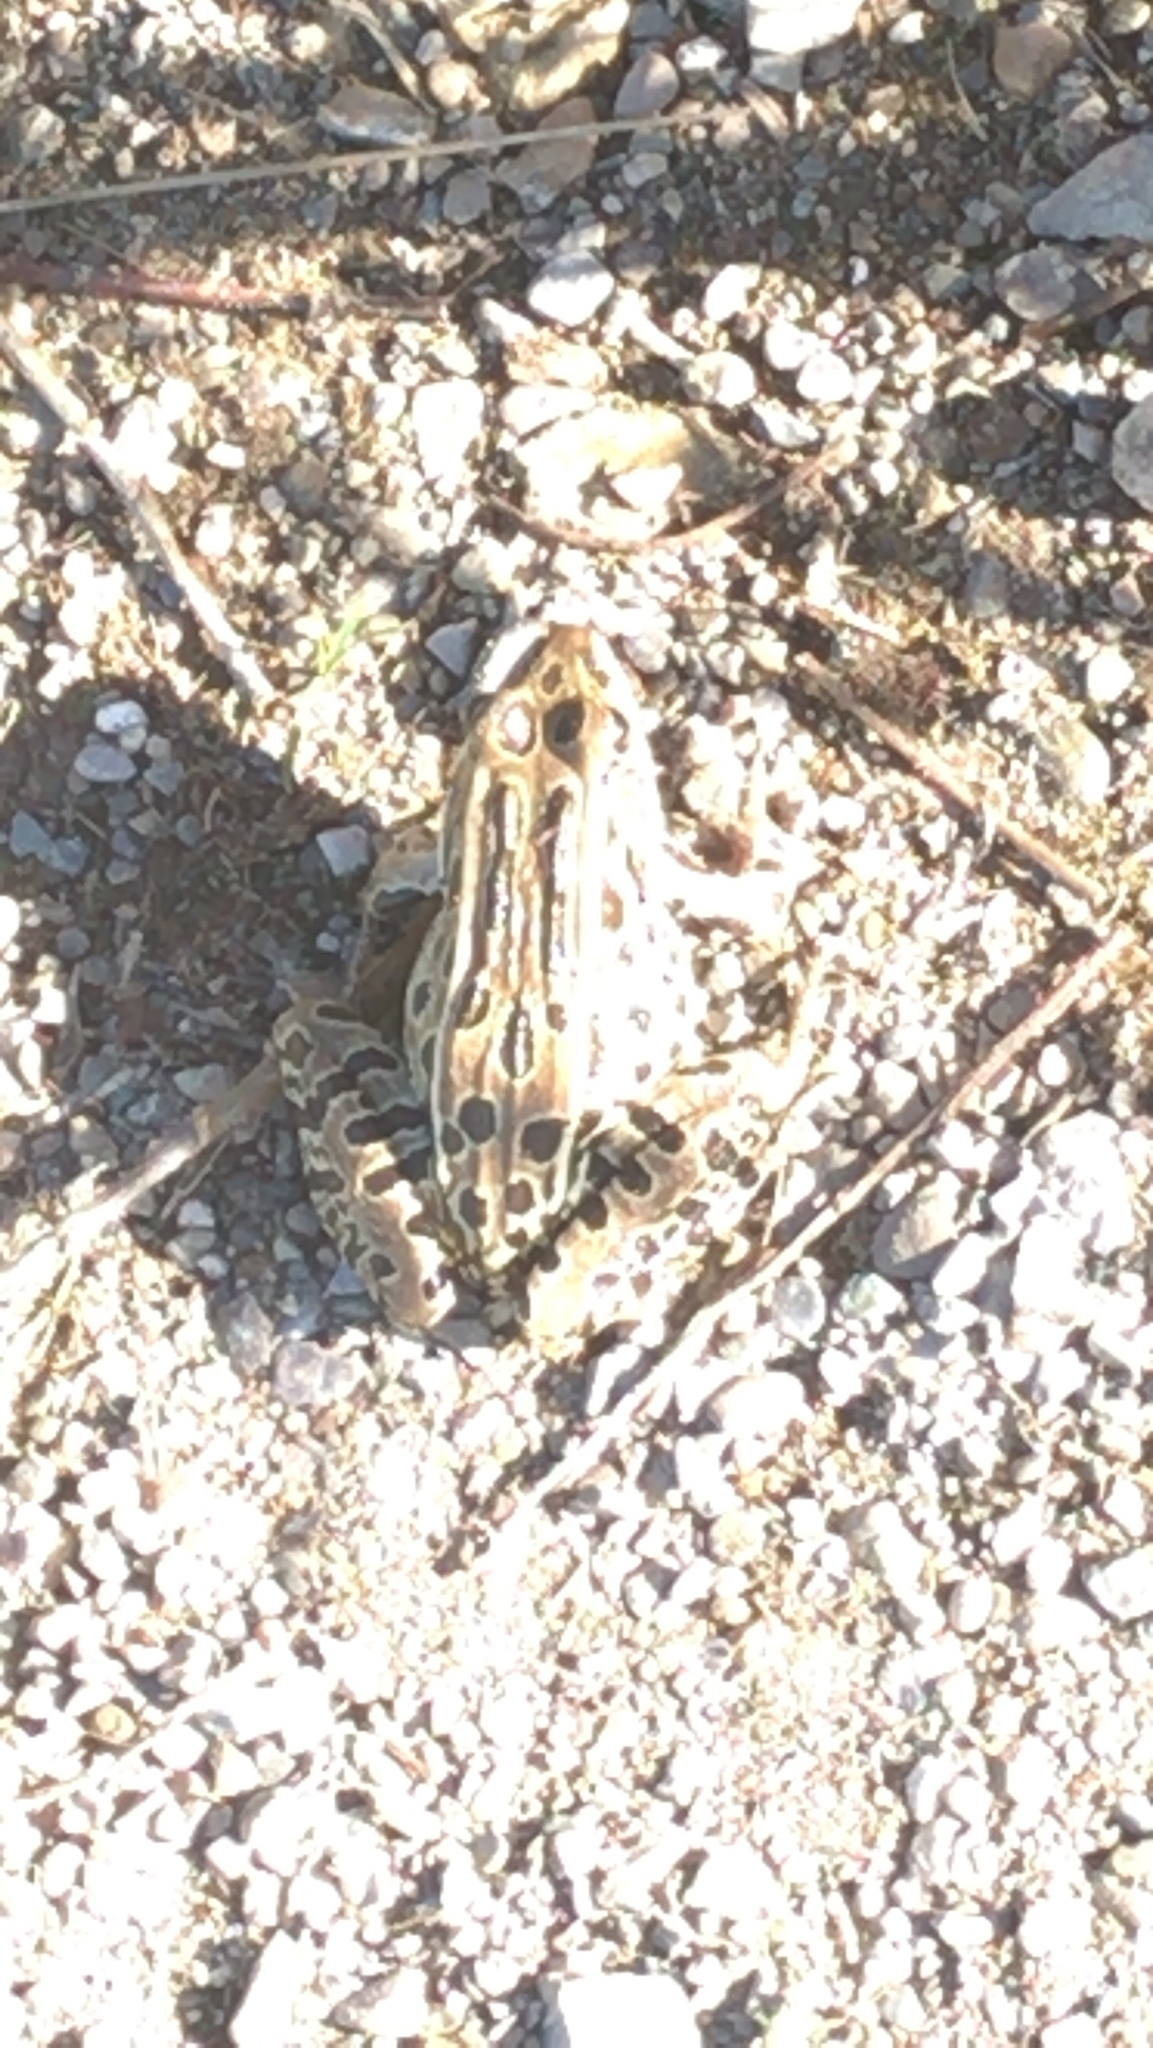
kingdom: Animalia
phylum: Chordata
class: Amphibia
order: Anura
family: Ranidae
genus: Lithobates
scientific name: Lithobates pipiens
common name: Northern leopard frog
